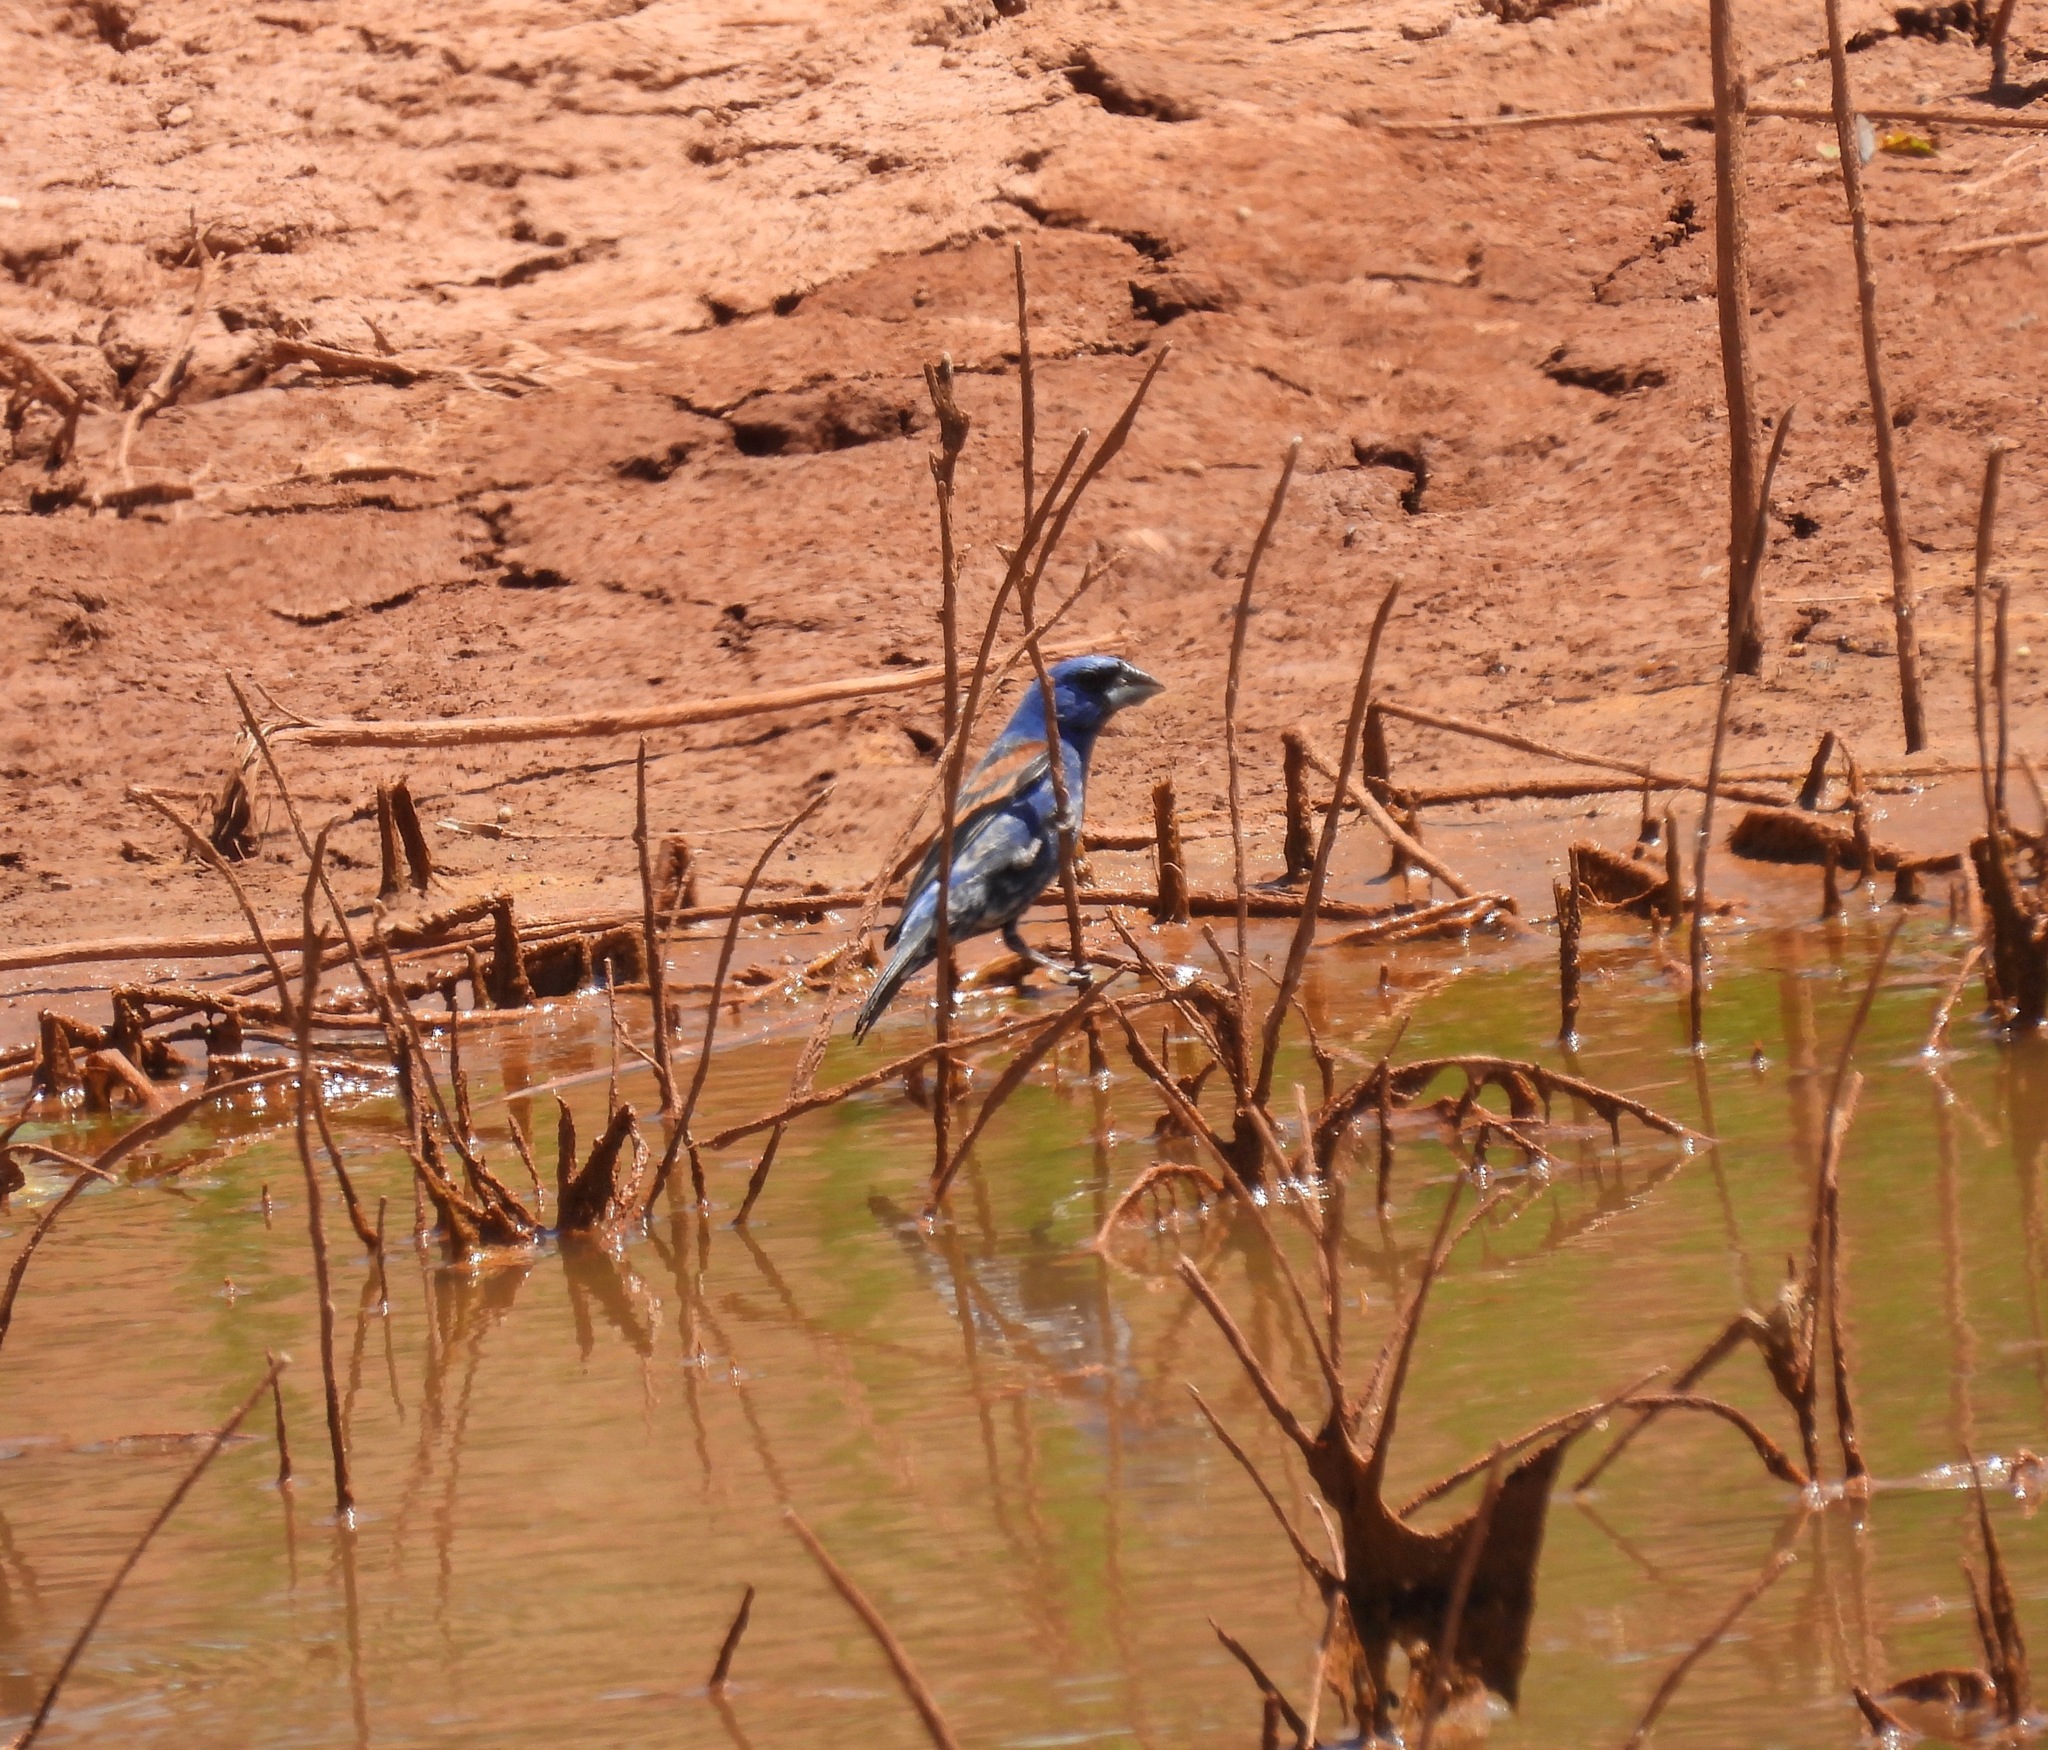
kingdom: Animalia
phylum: Chordata
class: Aves
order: Passeriformes
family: Cardinalidae
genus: Passerina
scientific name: Passerina caerulea
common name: Blue grosbeak
